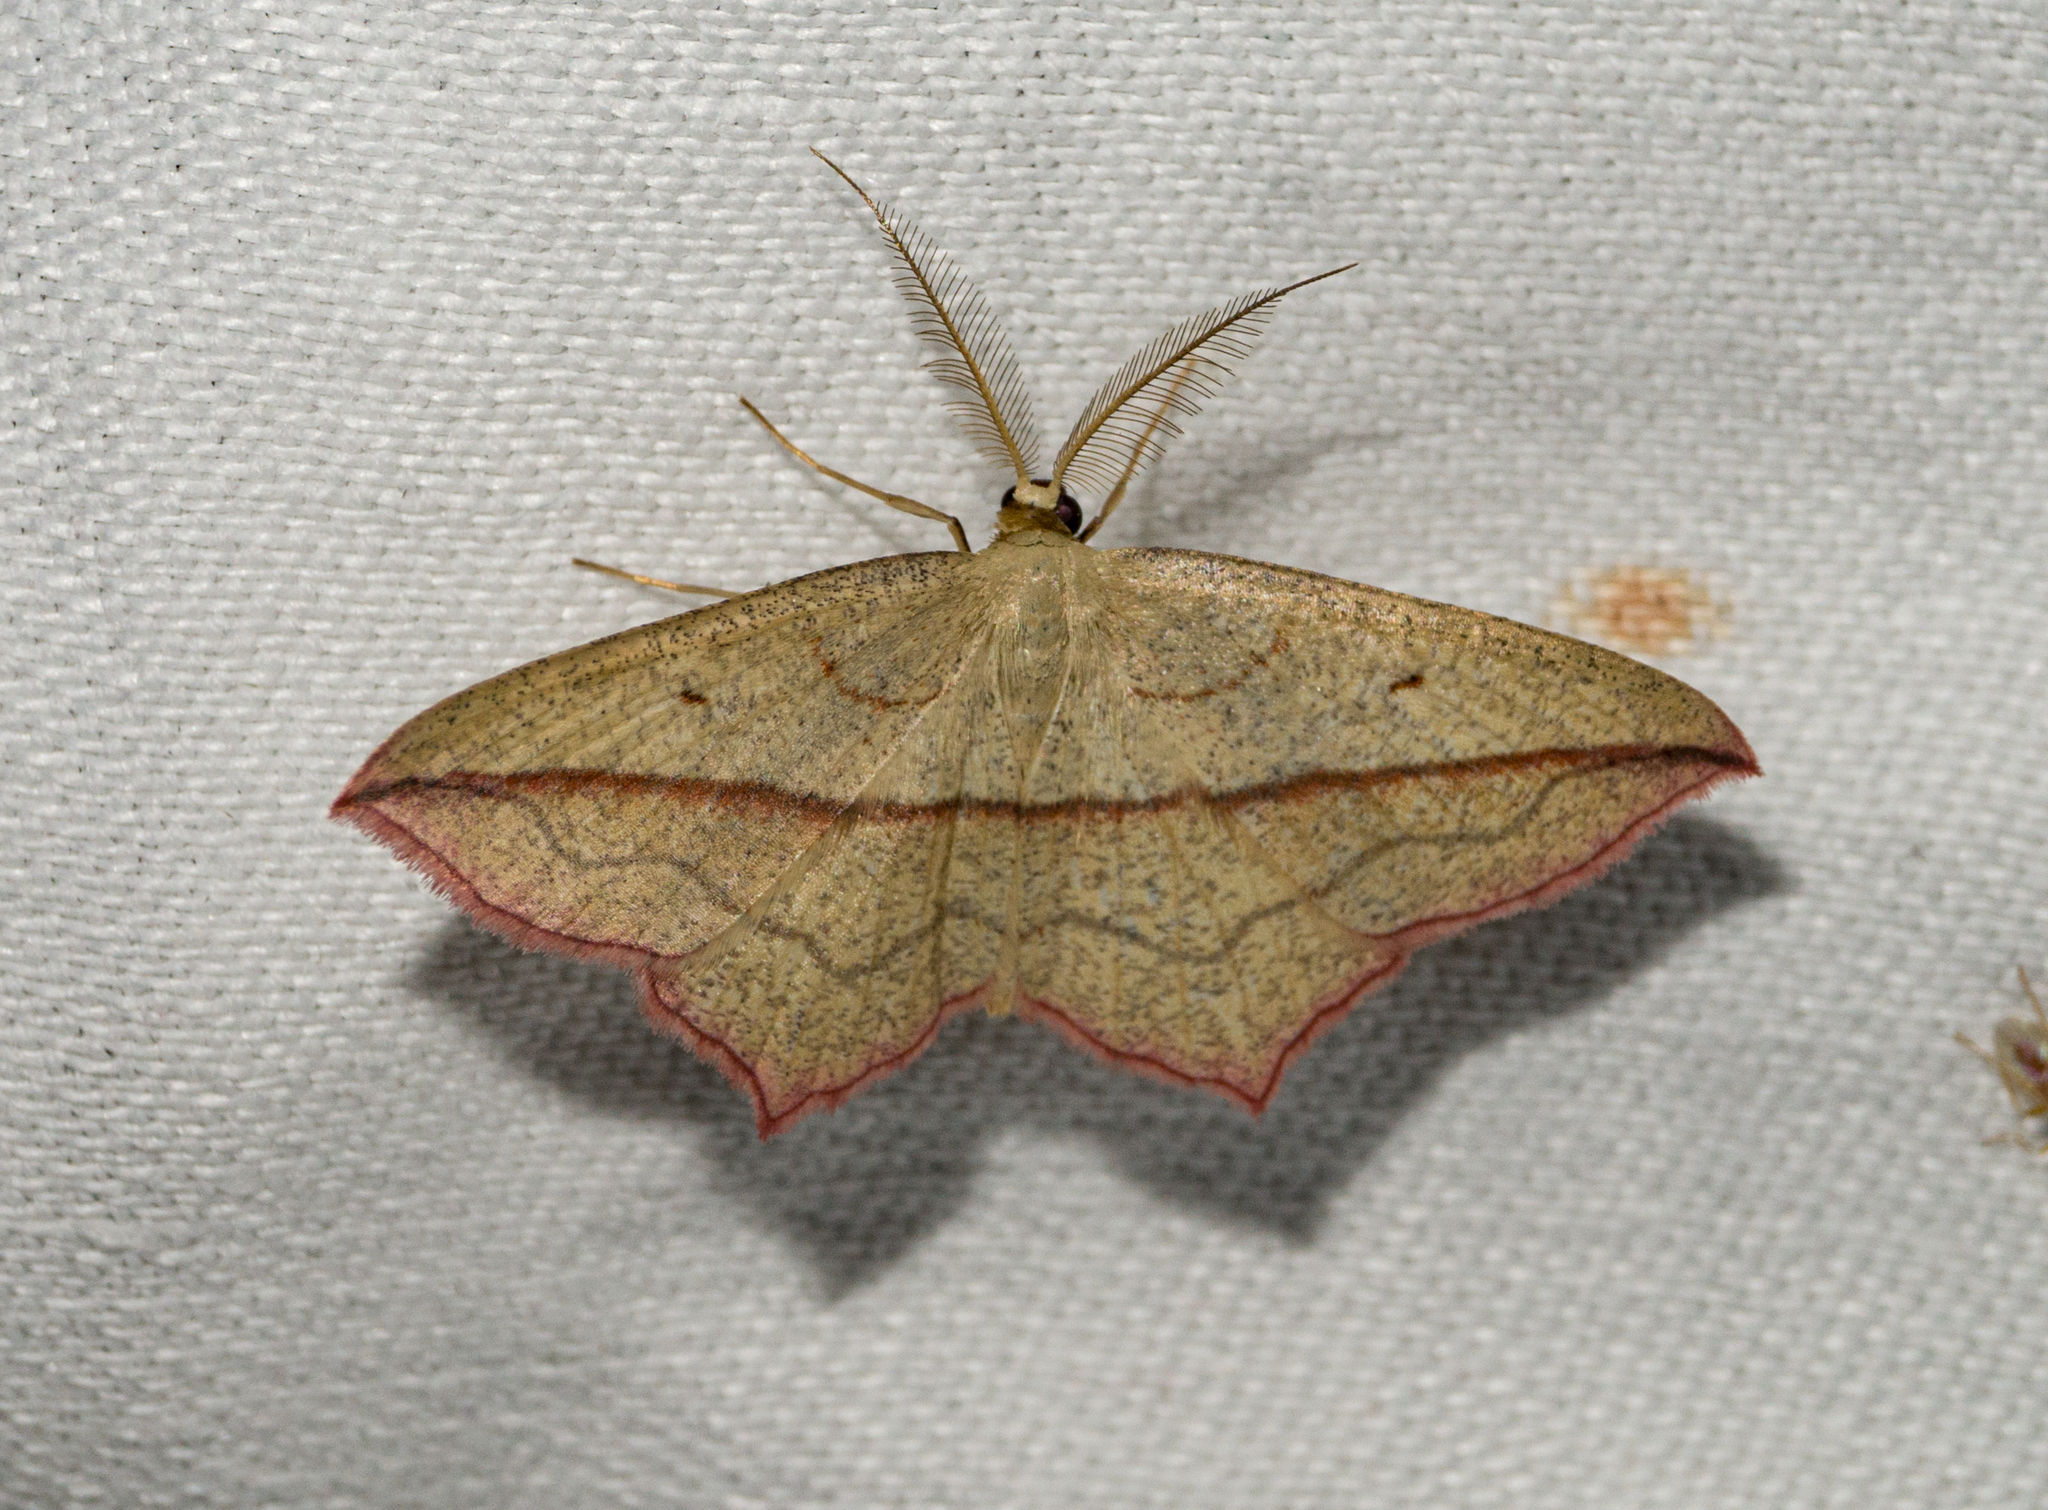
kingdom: Animalia
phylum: Arthropoda
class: Insecta
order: Lepidoptera
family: Geometridae
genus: Timandra
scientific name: Timandra comae
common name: Blood-vein
